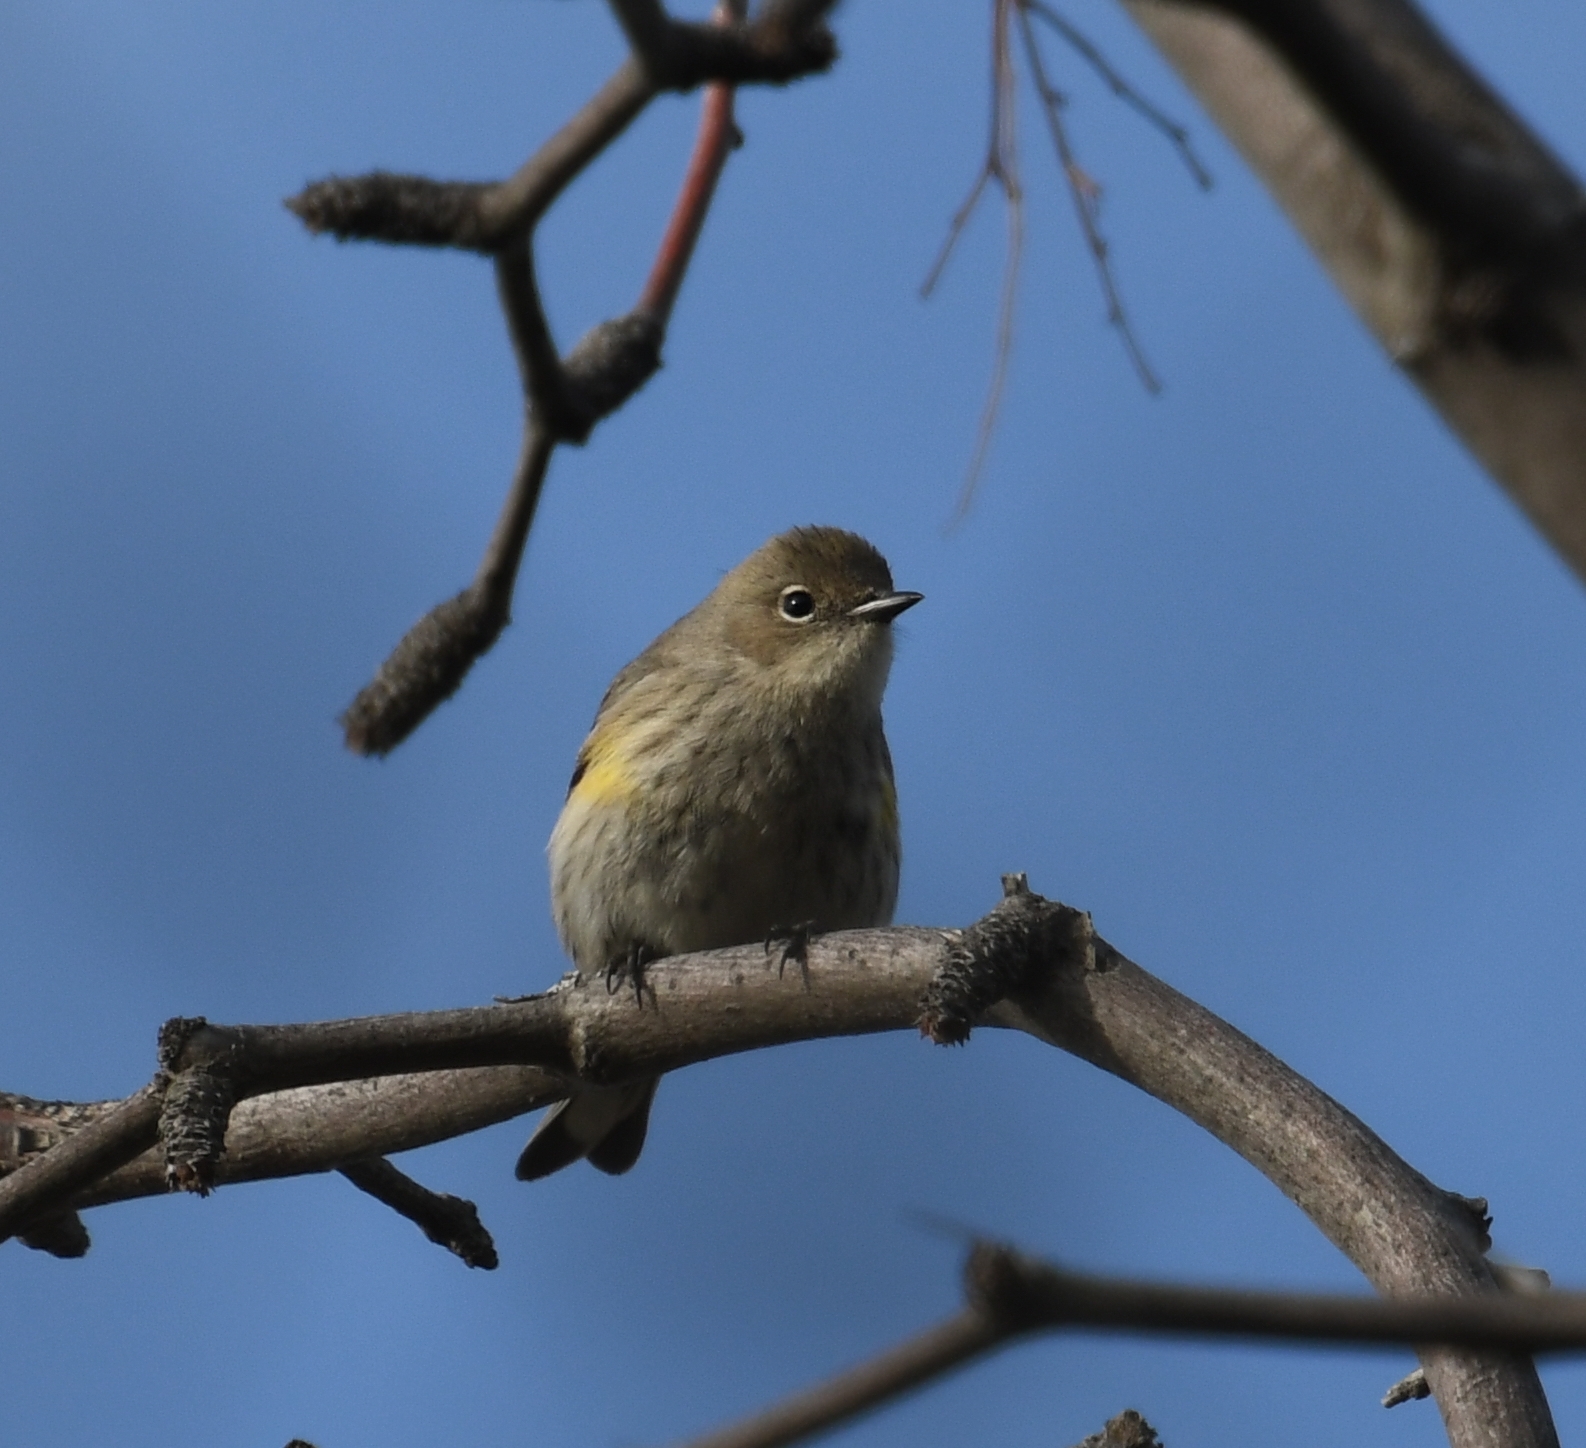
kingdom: Animalia
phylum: Chordata
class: Aves
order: Passeriformes
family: Parulidae
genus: Setophaga
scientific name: Setophaga coronata
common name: Myrtle warbler
